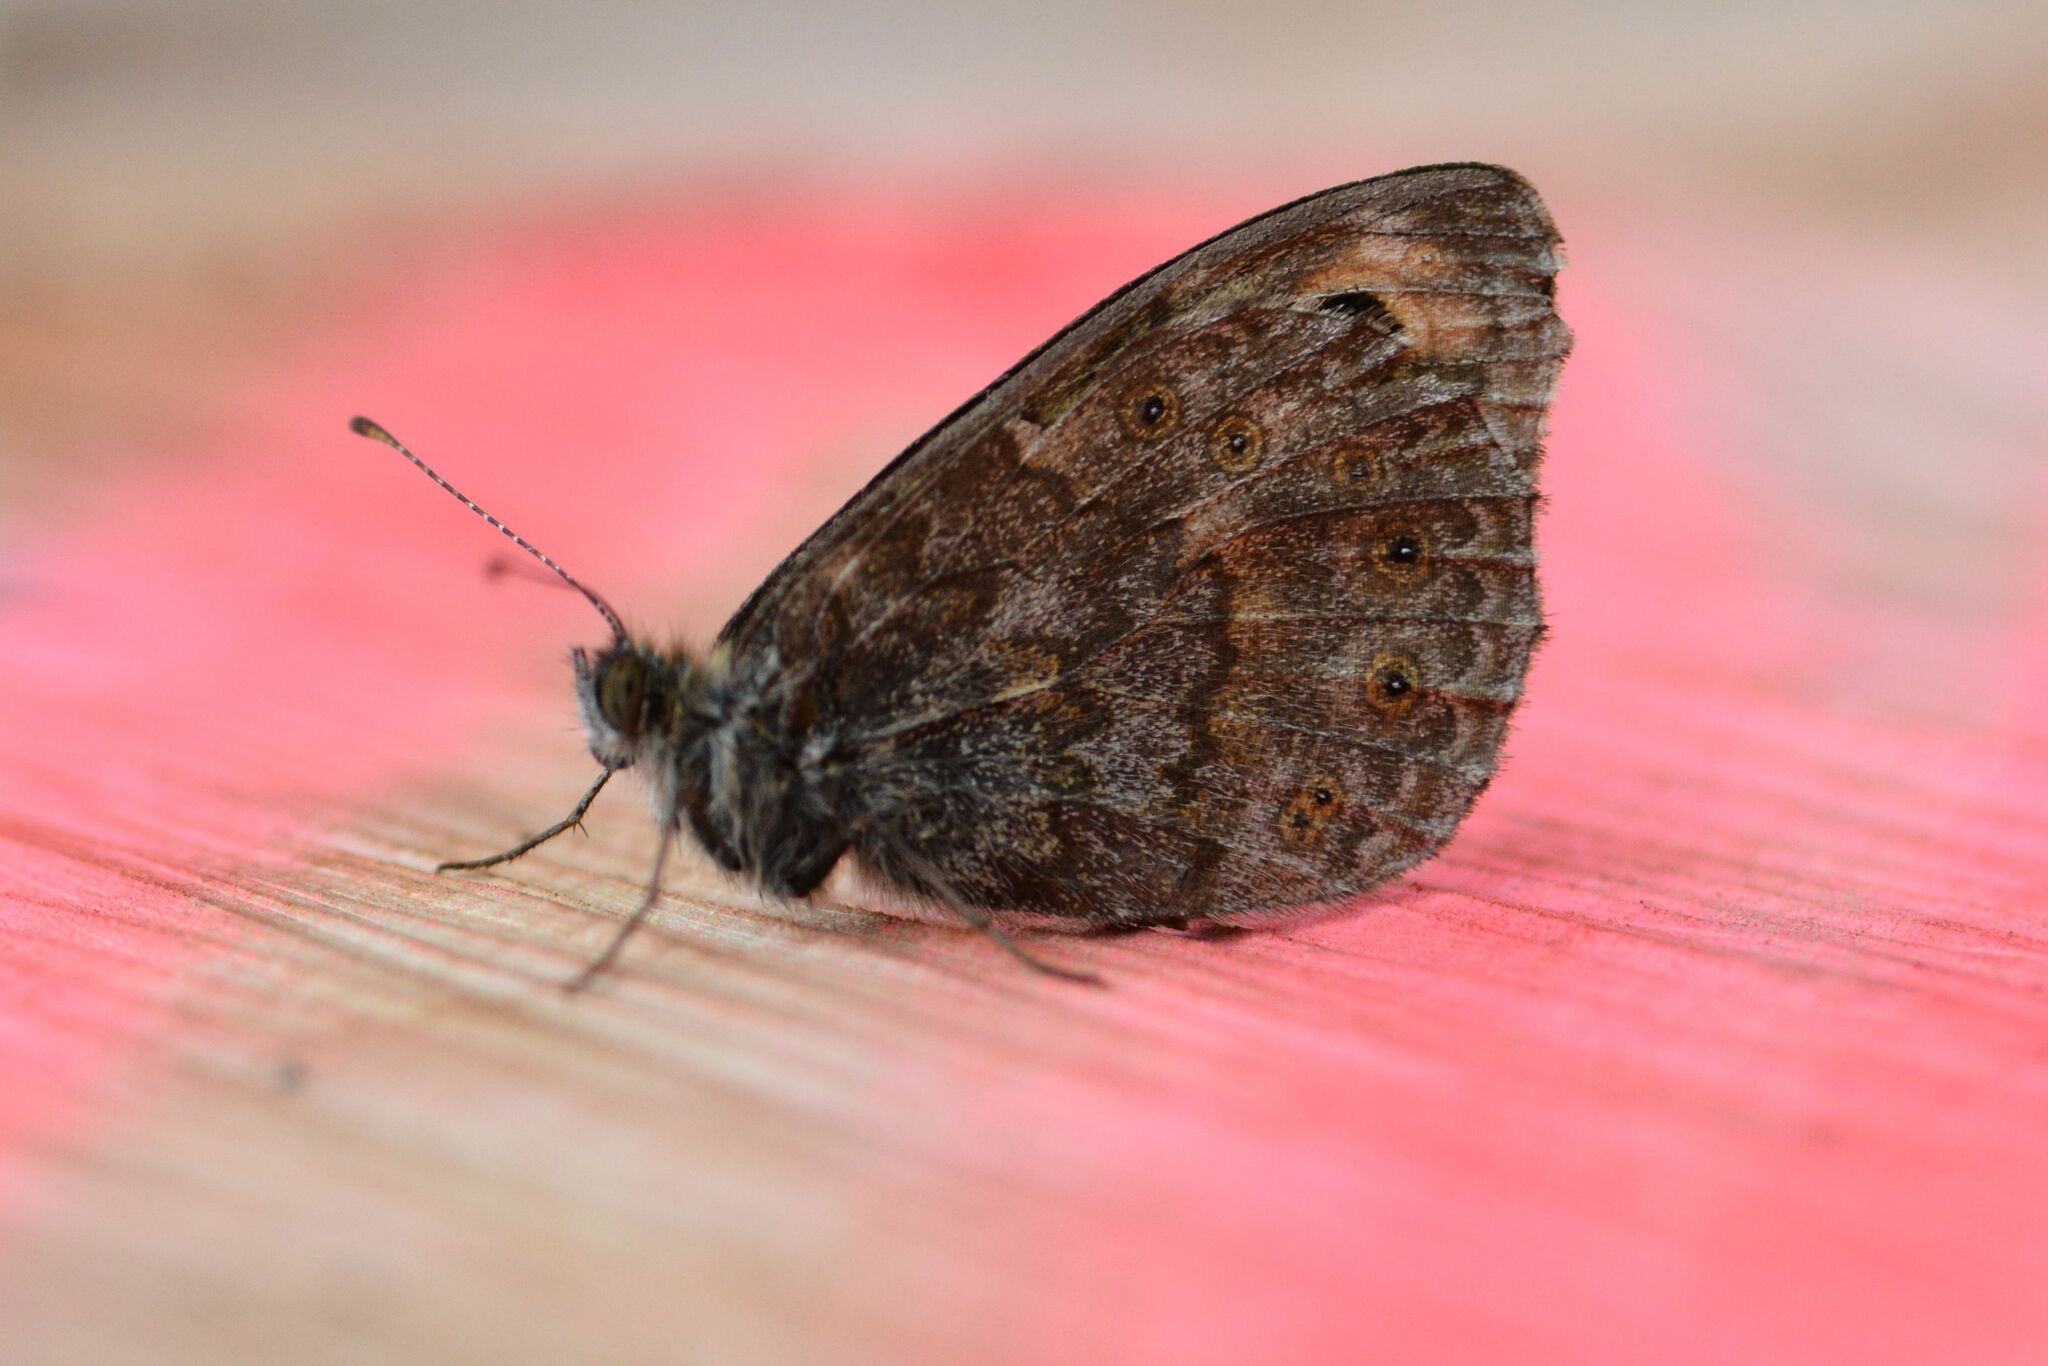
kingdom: Animalia
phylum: Arthropoda
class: Insecta
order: Lepidoptera
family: Nymphalidae
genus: Pararge
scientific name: Pararge Lasiommata megera
